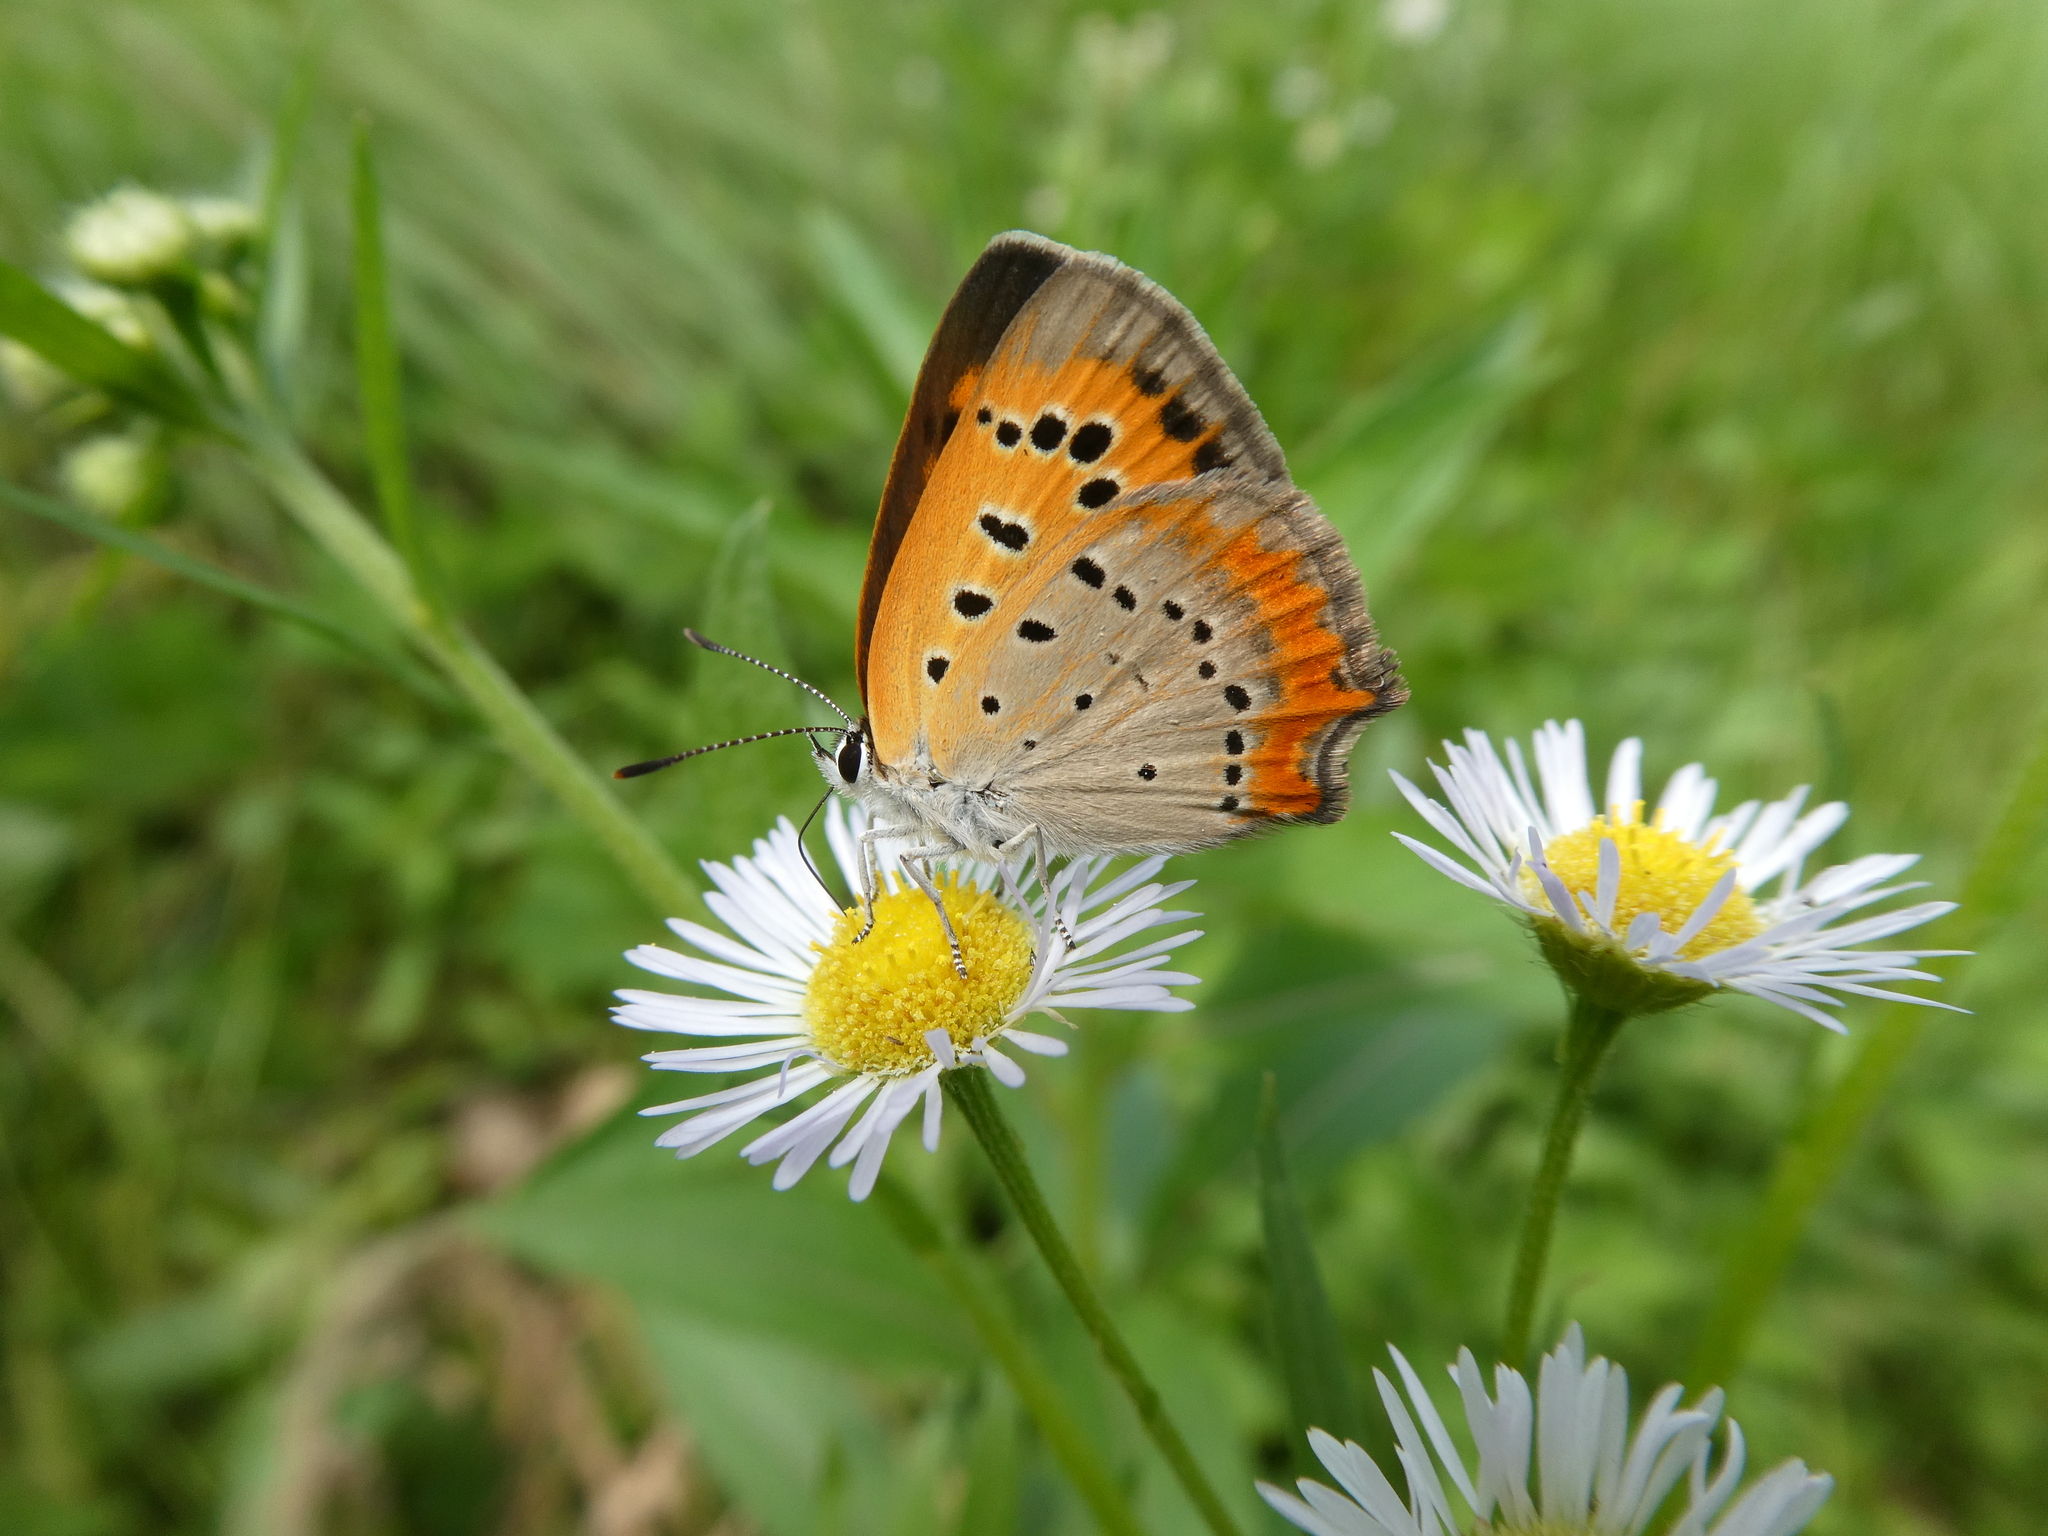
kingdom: Animalia
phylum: Arthropoda
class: Insecta
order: Lepidoptera
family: Lycaenidae
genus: Lycaena
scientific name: Lycaena phlaeas
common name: Small copper
